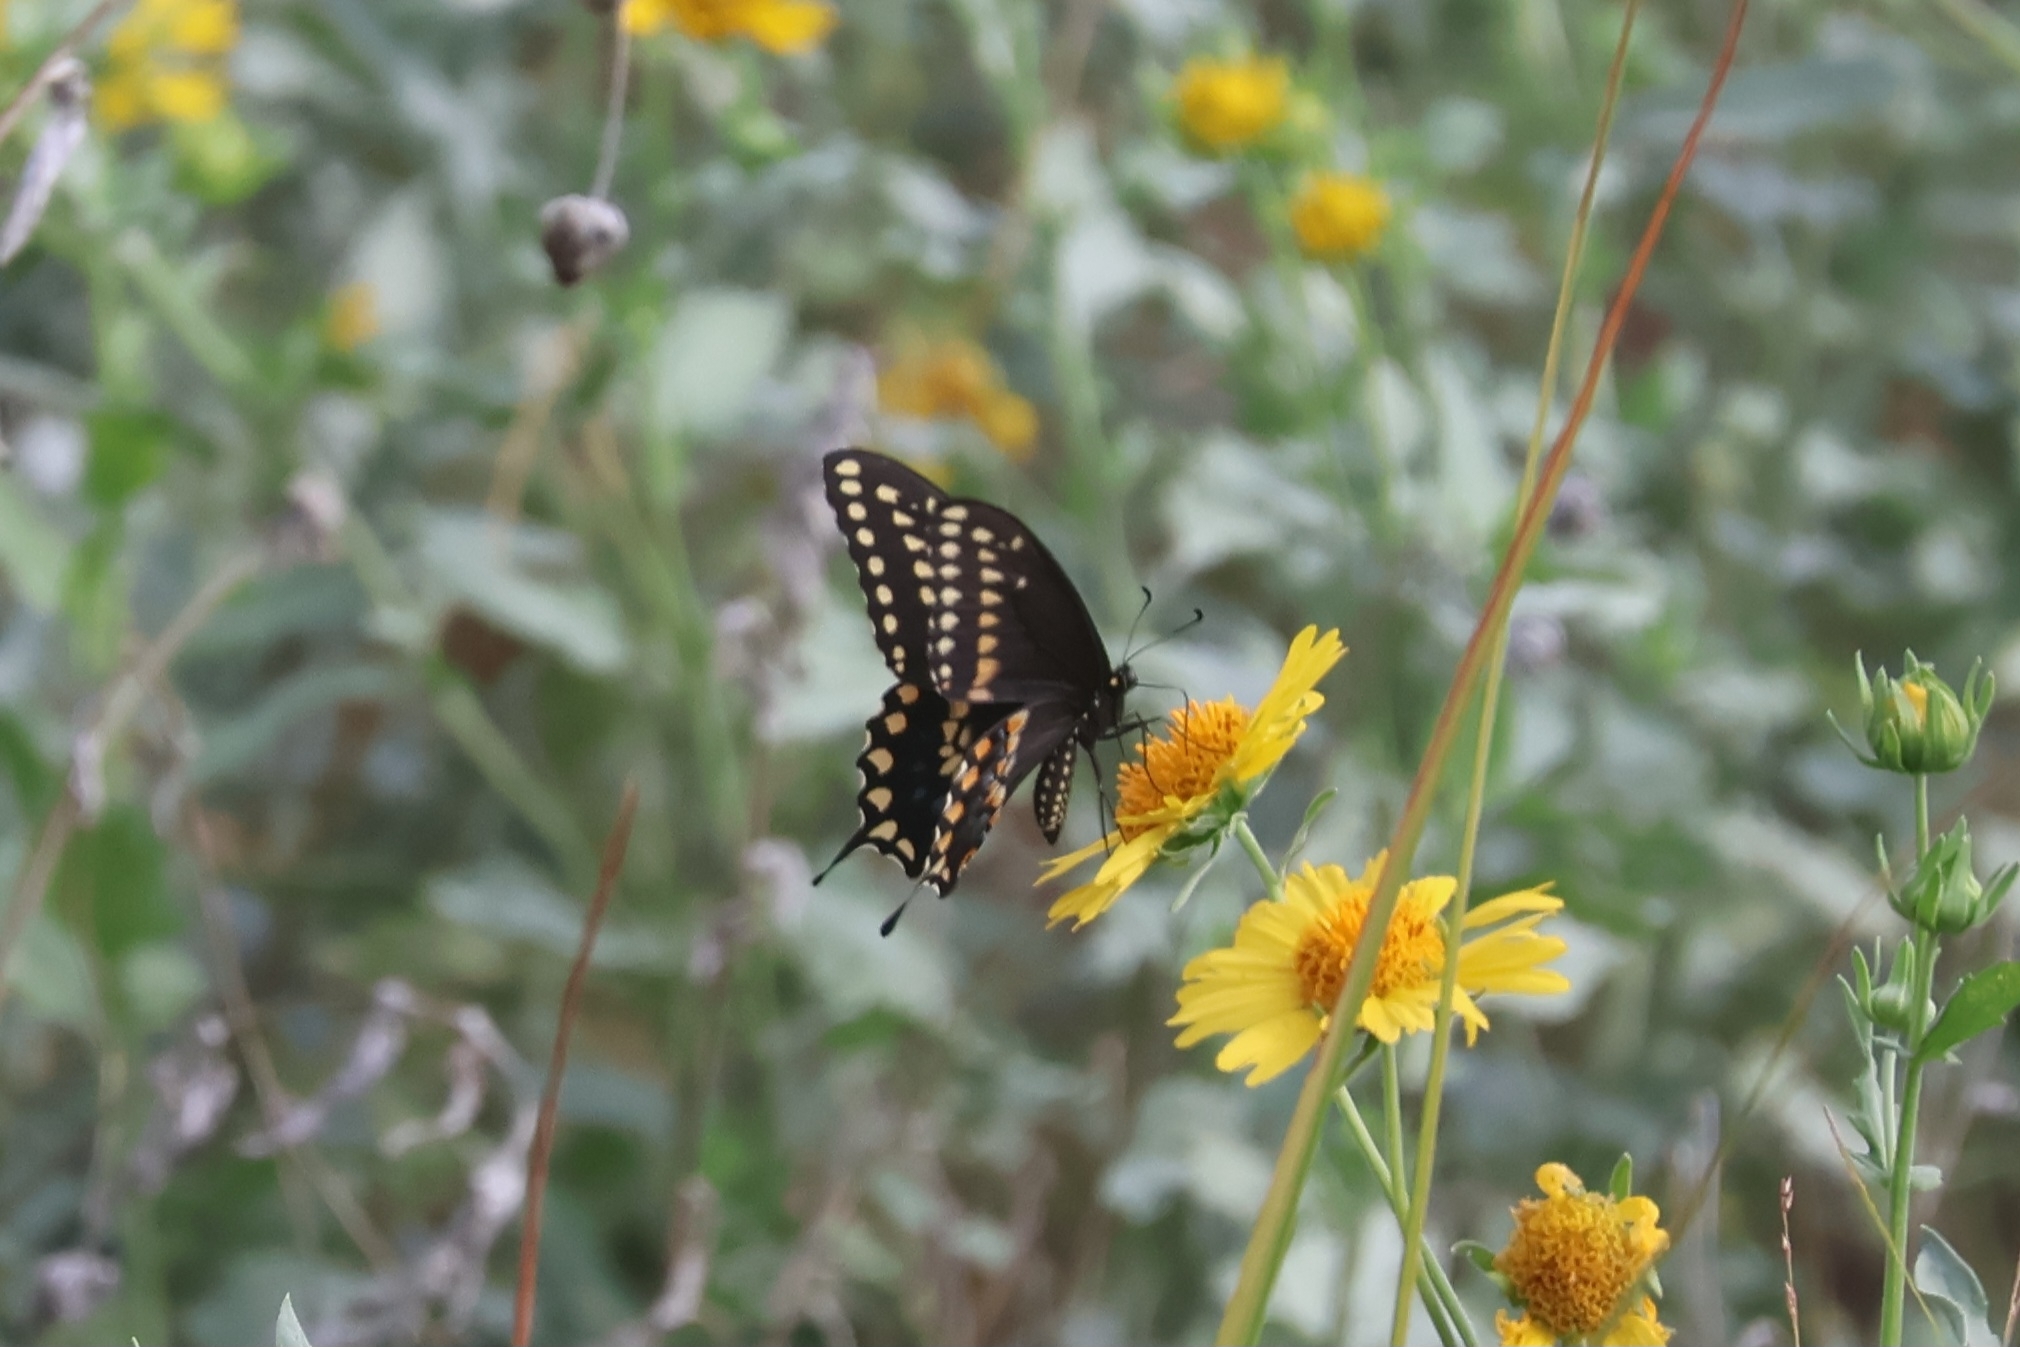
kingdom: Animalia
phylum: Arthropoda
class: Insecta
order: Lepidoptera
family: Papilionidae
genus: Papilio
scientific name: Papilio polyxenes
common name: Black swallowtail
